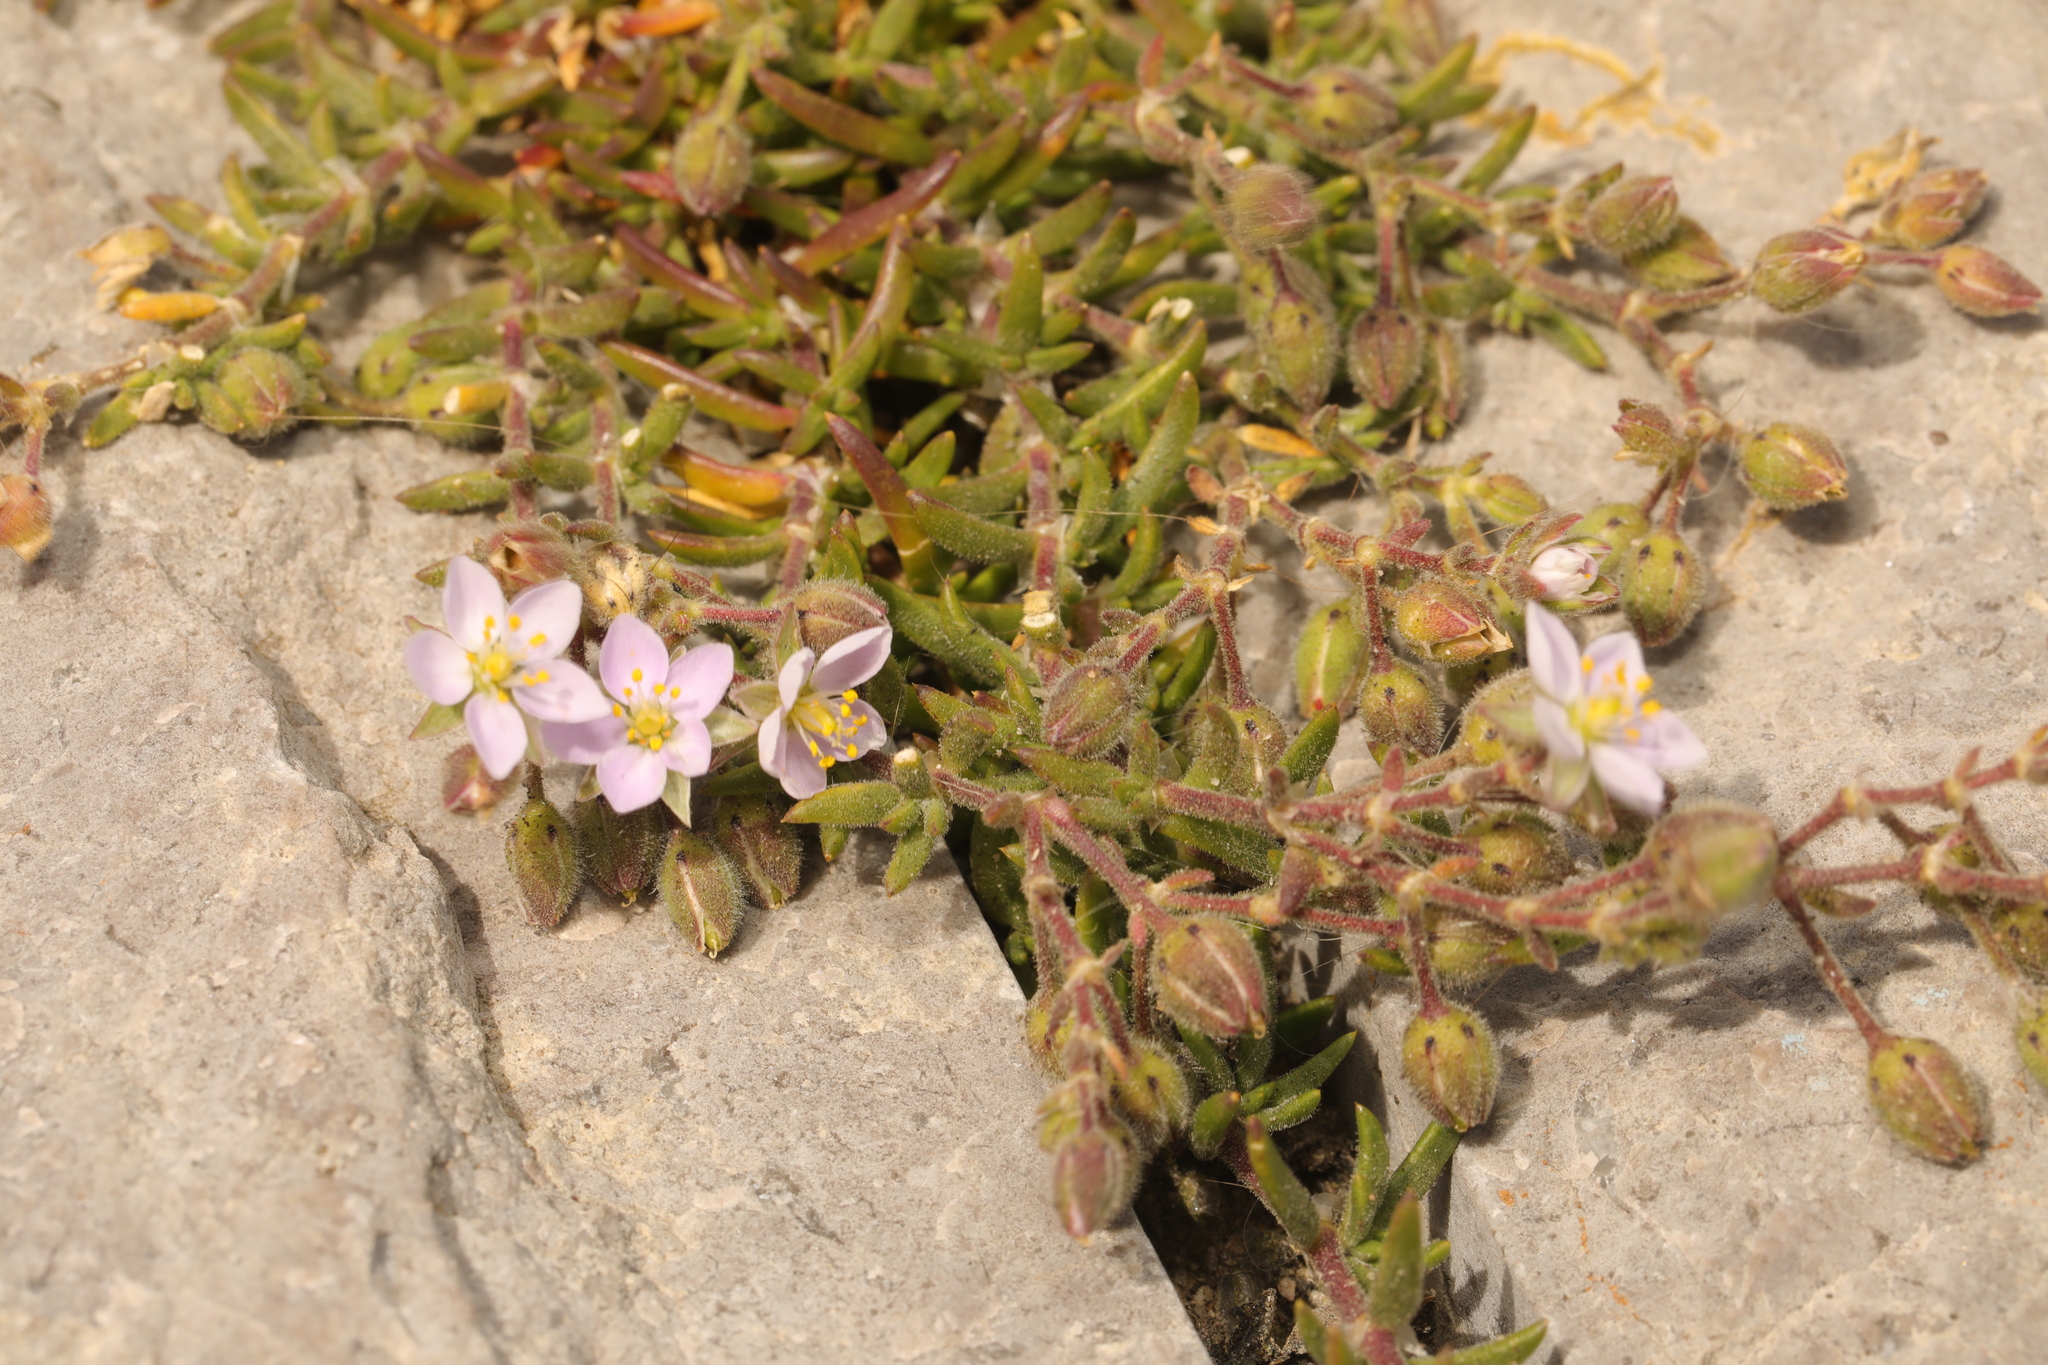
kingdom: Plantae
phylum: Tracheophyta
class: Magnoliopsida
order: Caryophyllales
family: Caryophyllaceae
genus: Spergularia
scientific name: Spergularia marina
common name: Lesser sea-spurrey
